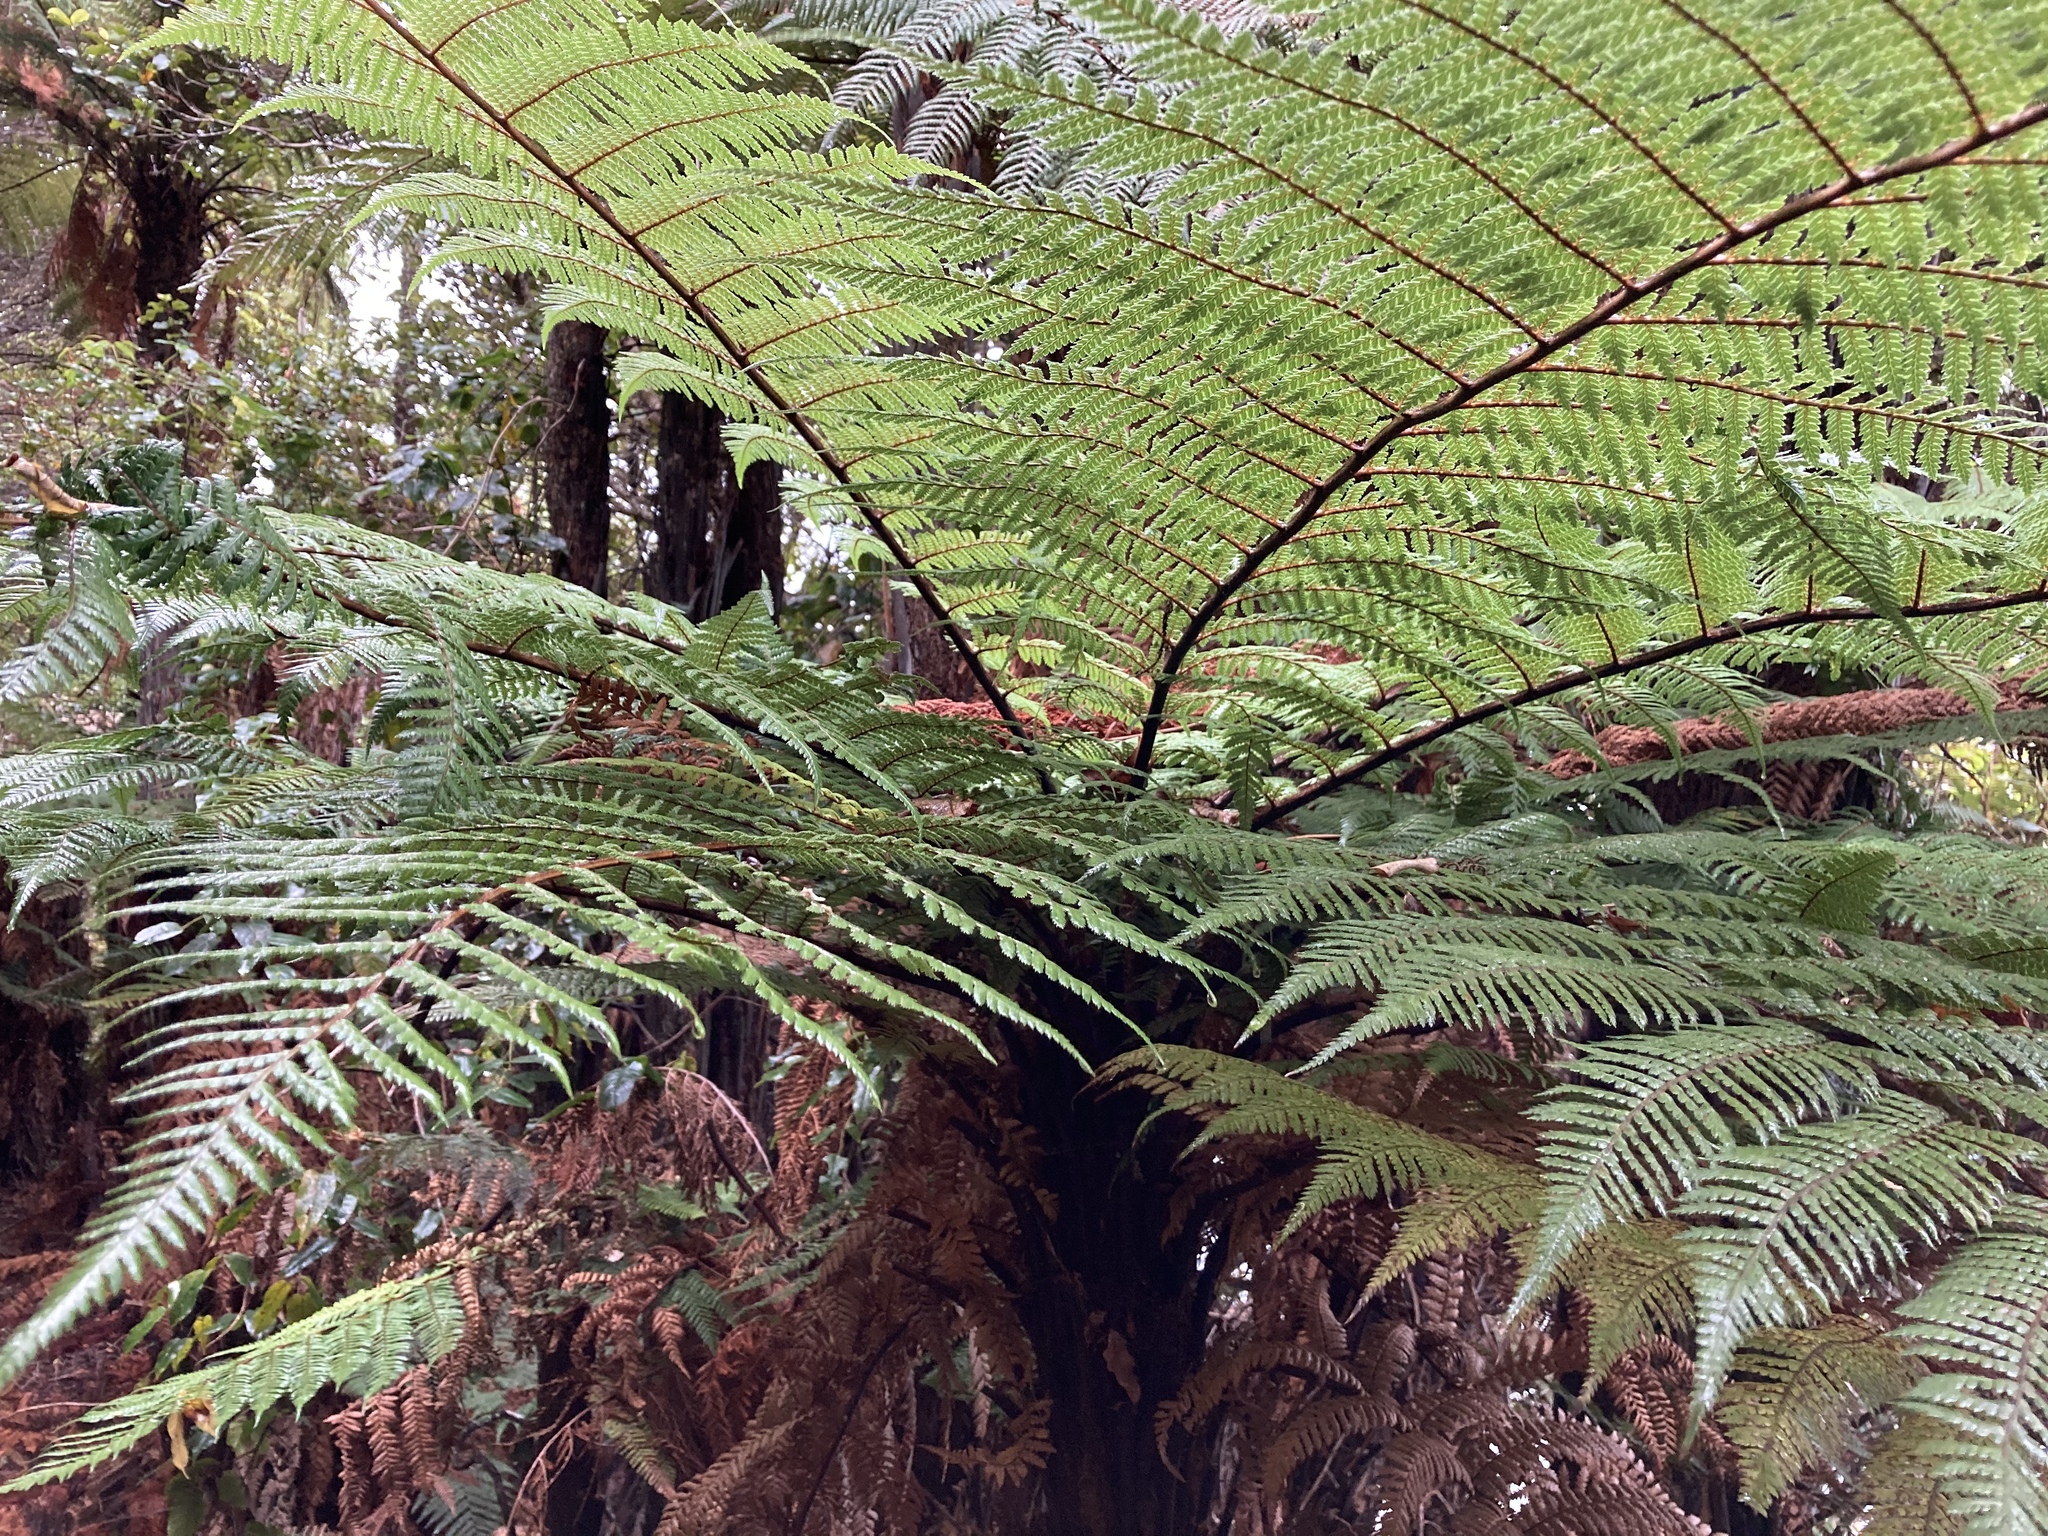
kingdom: Plantae
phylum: Tracheophyta
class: Polypodiopsida
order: Cyatheales
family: Dicksoniaceae
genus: Dicksonia
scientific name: Dicksonia squarrosa
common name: Hard treefern
